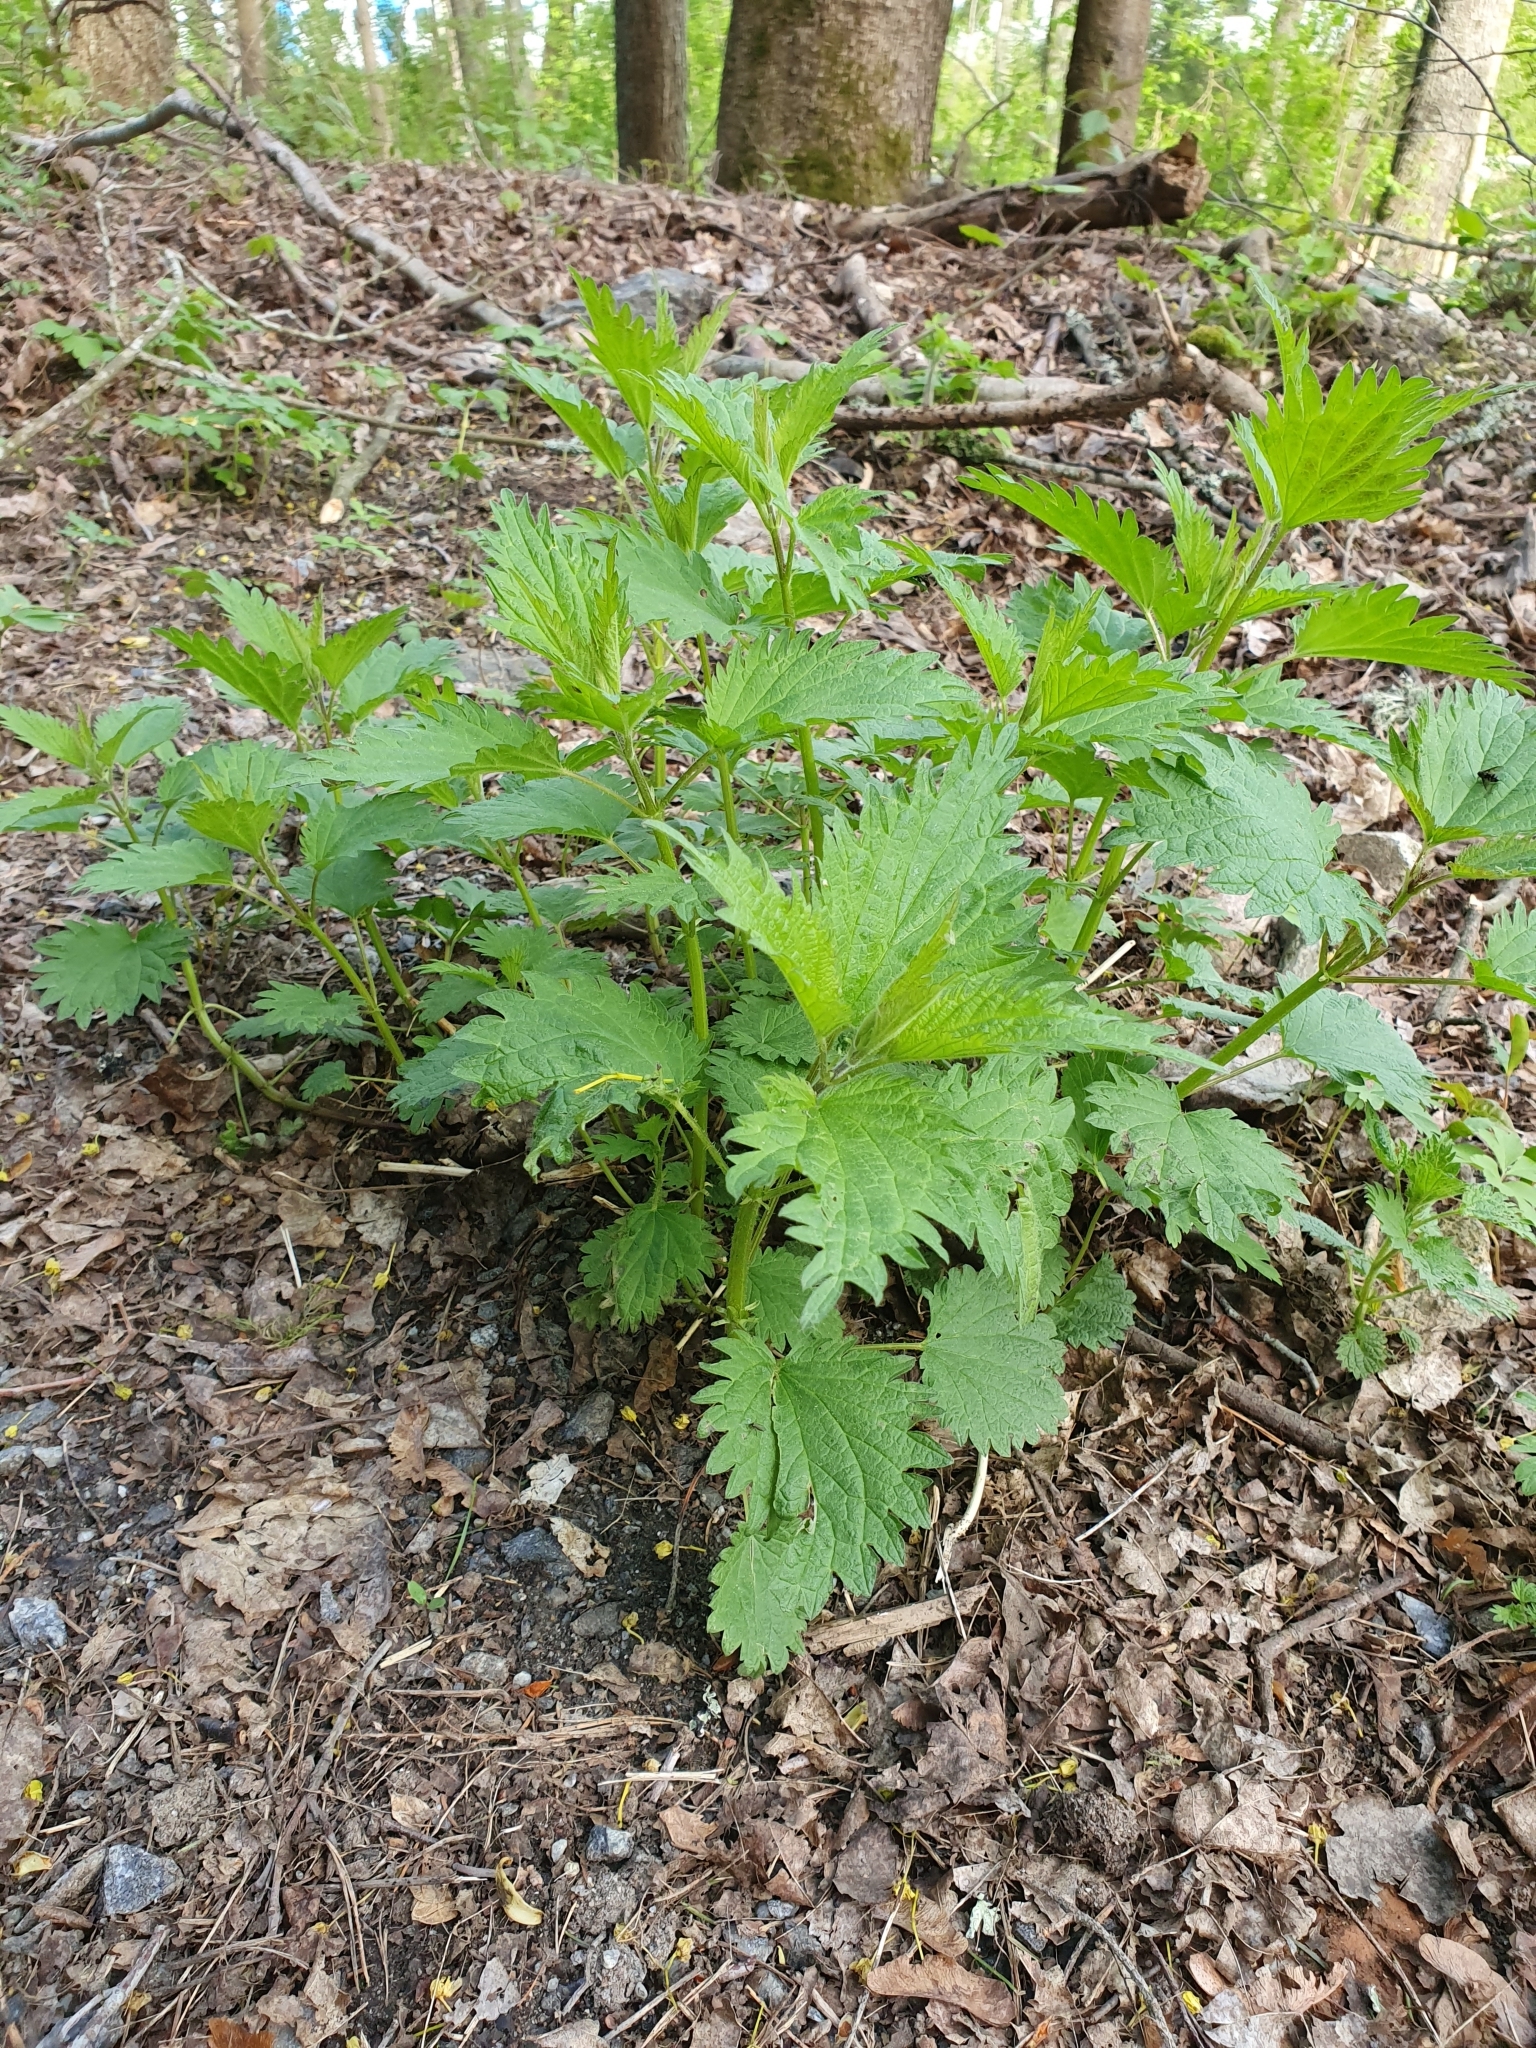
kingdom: Plantae
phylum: Tracheophyta
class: Magnoliopsida
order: Rosales
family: Urticaceae
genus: Urtica
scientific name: Urtica dioica
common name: Common nettle
